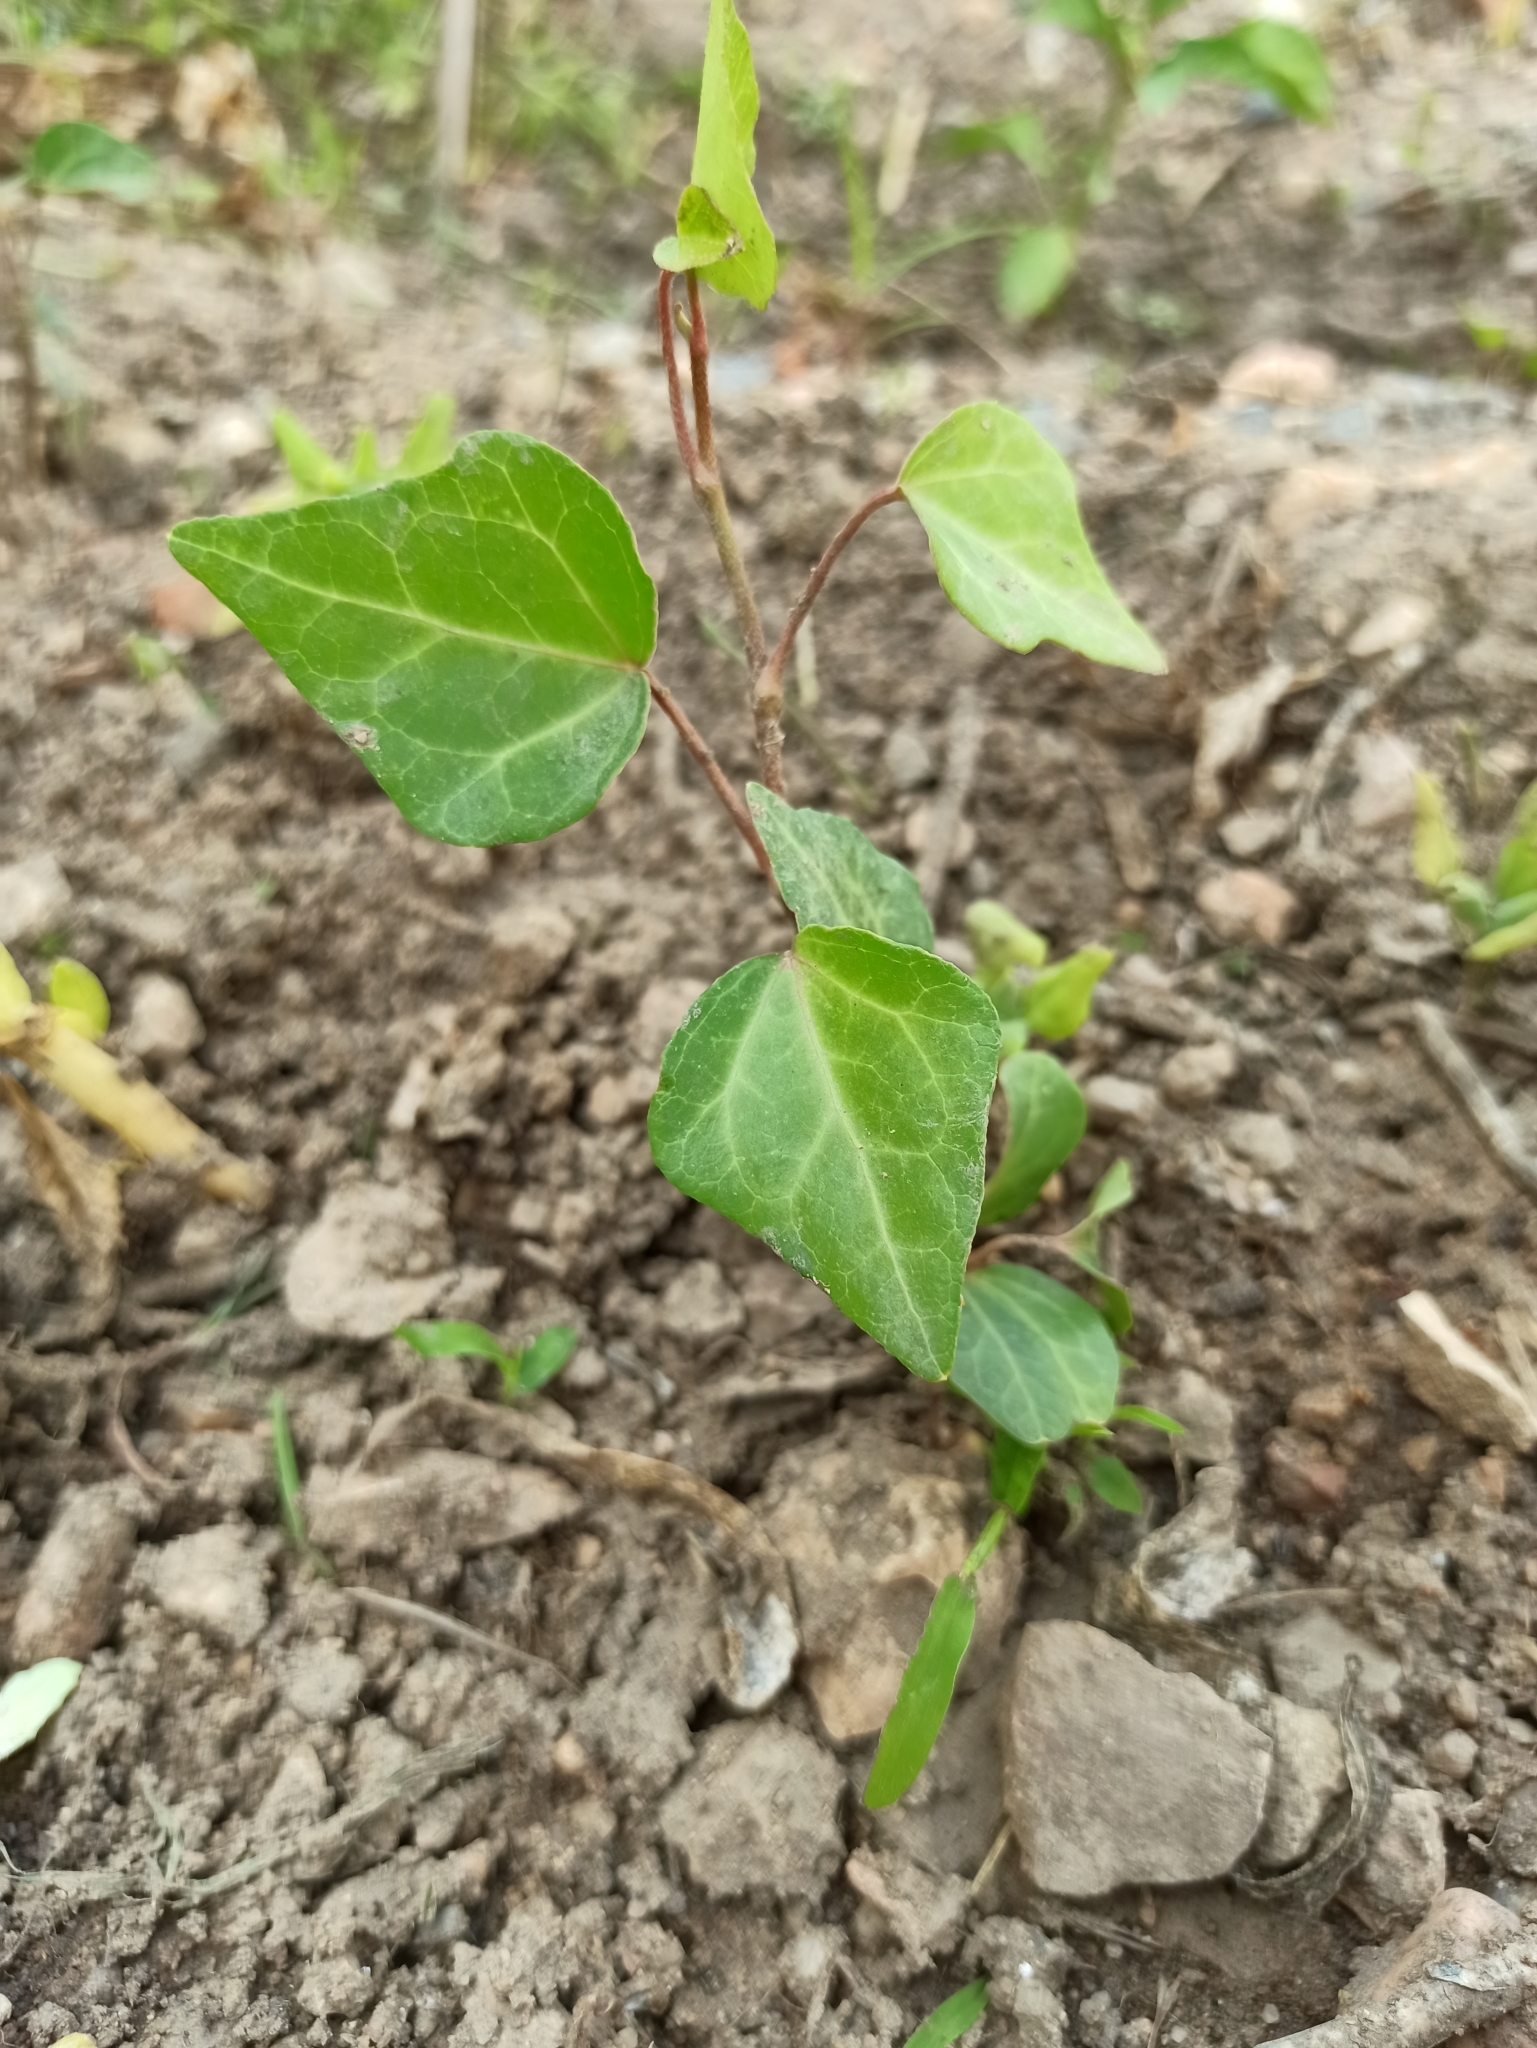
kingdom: Plantae
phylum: Tracheophyta
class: Magnoliopsida
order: Apiales
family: Araliaceae
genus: Hedera
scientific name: Hedera helix
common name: Ivy
